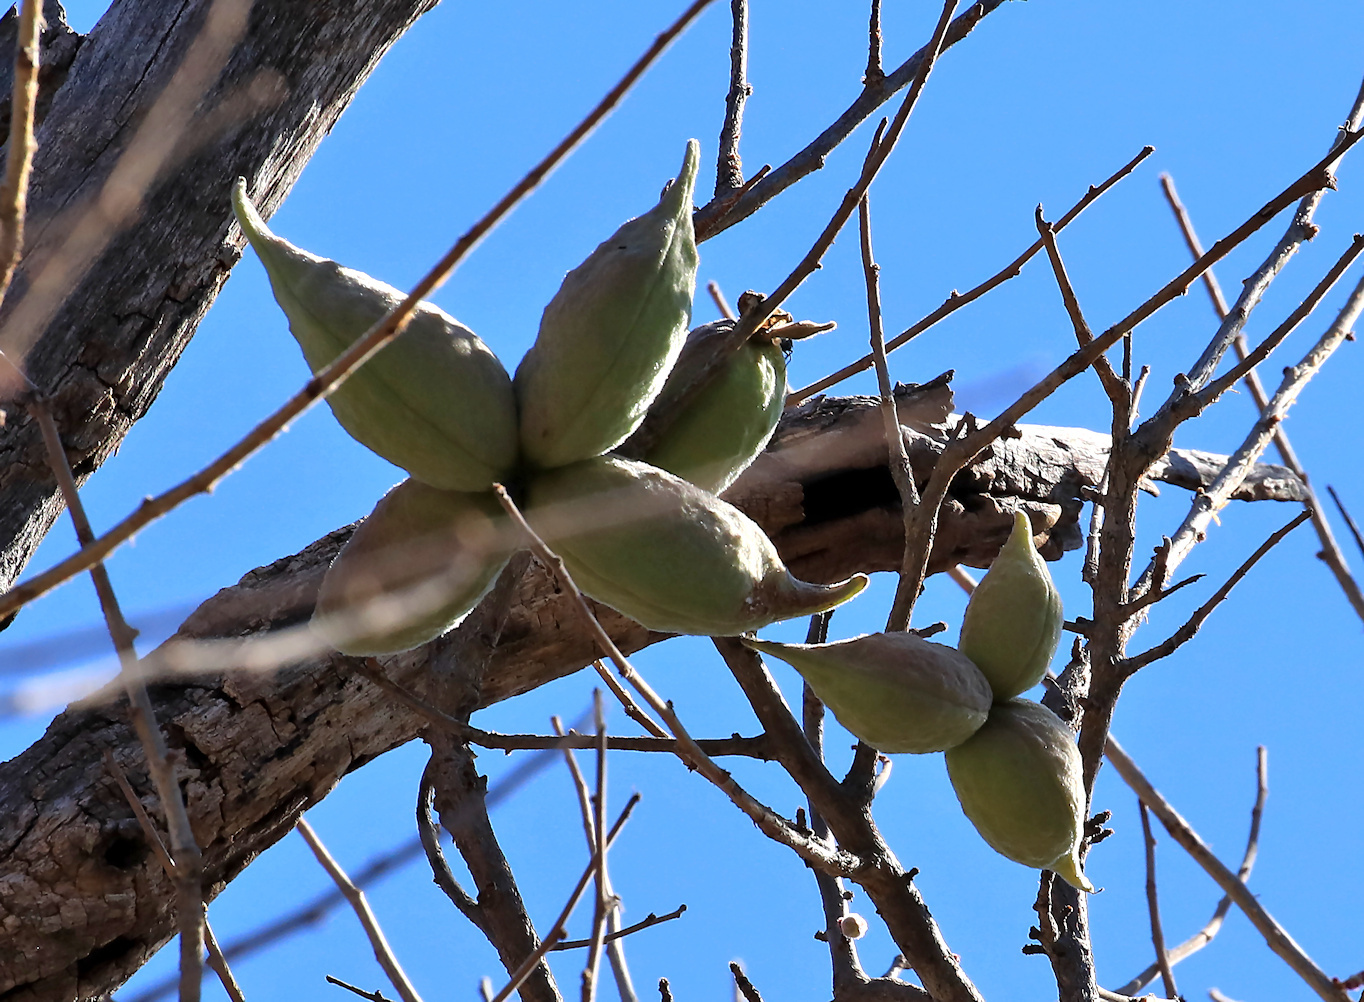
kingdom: Plantae
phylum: Tracheophyta
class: Magnoliopsida
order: Malvales
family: Malvaceae
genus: Sterculia
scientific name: Sterculia rogersii
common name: Star-chestnut
